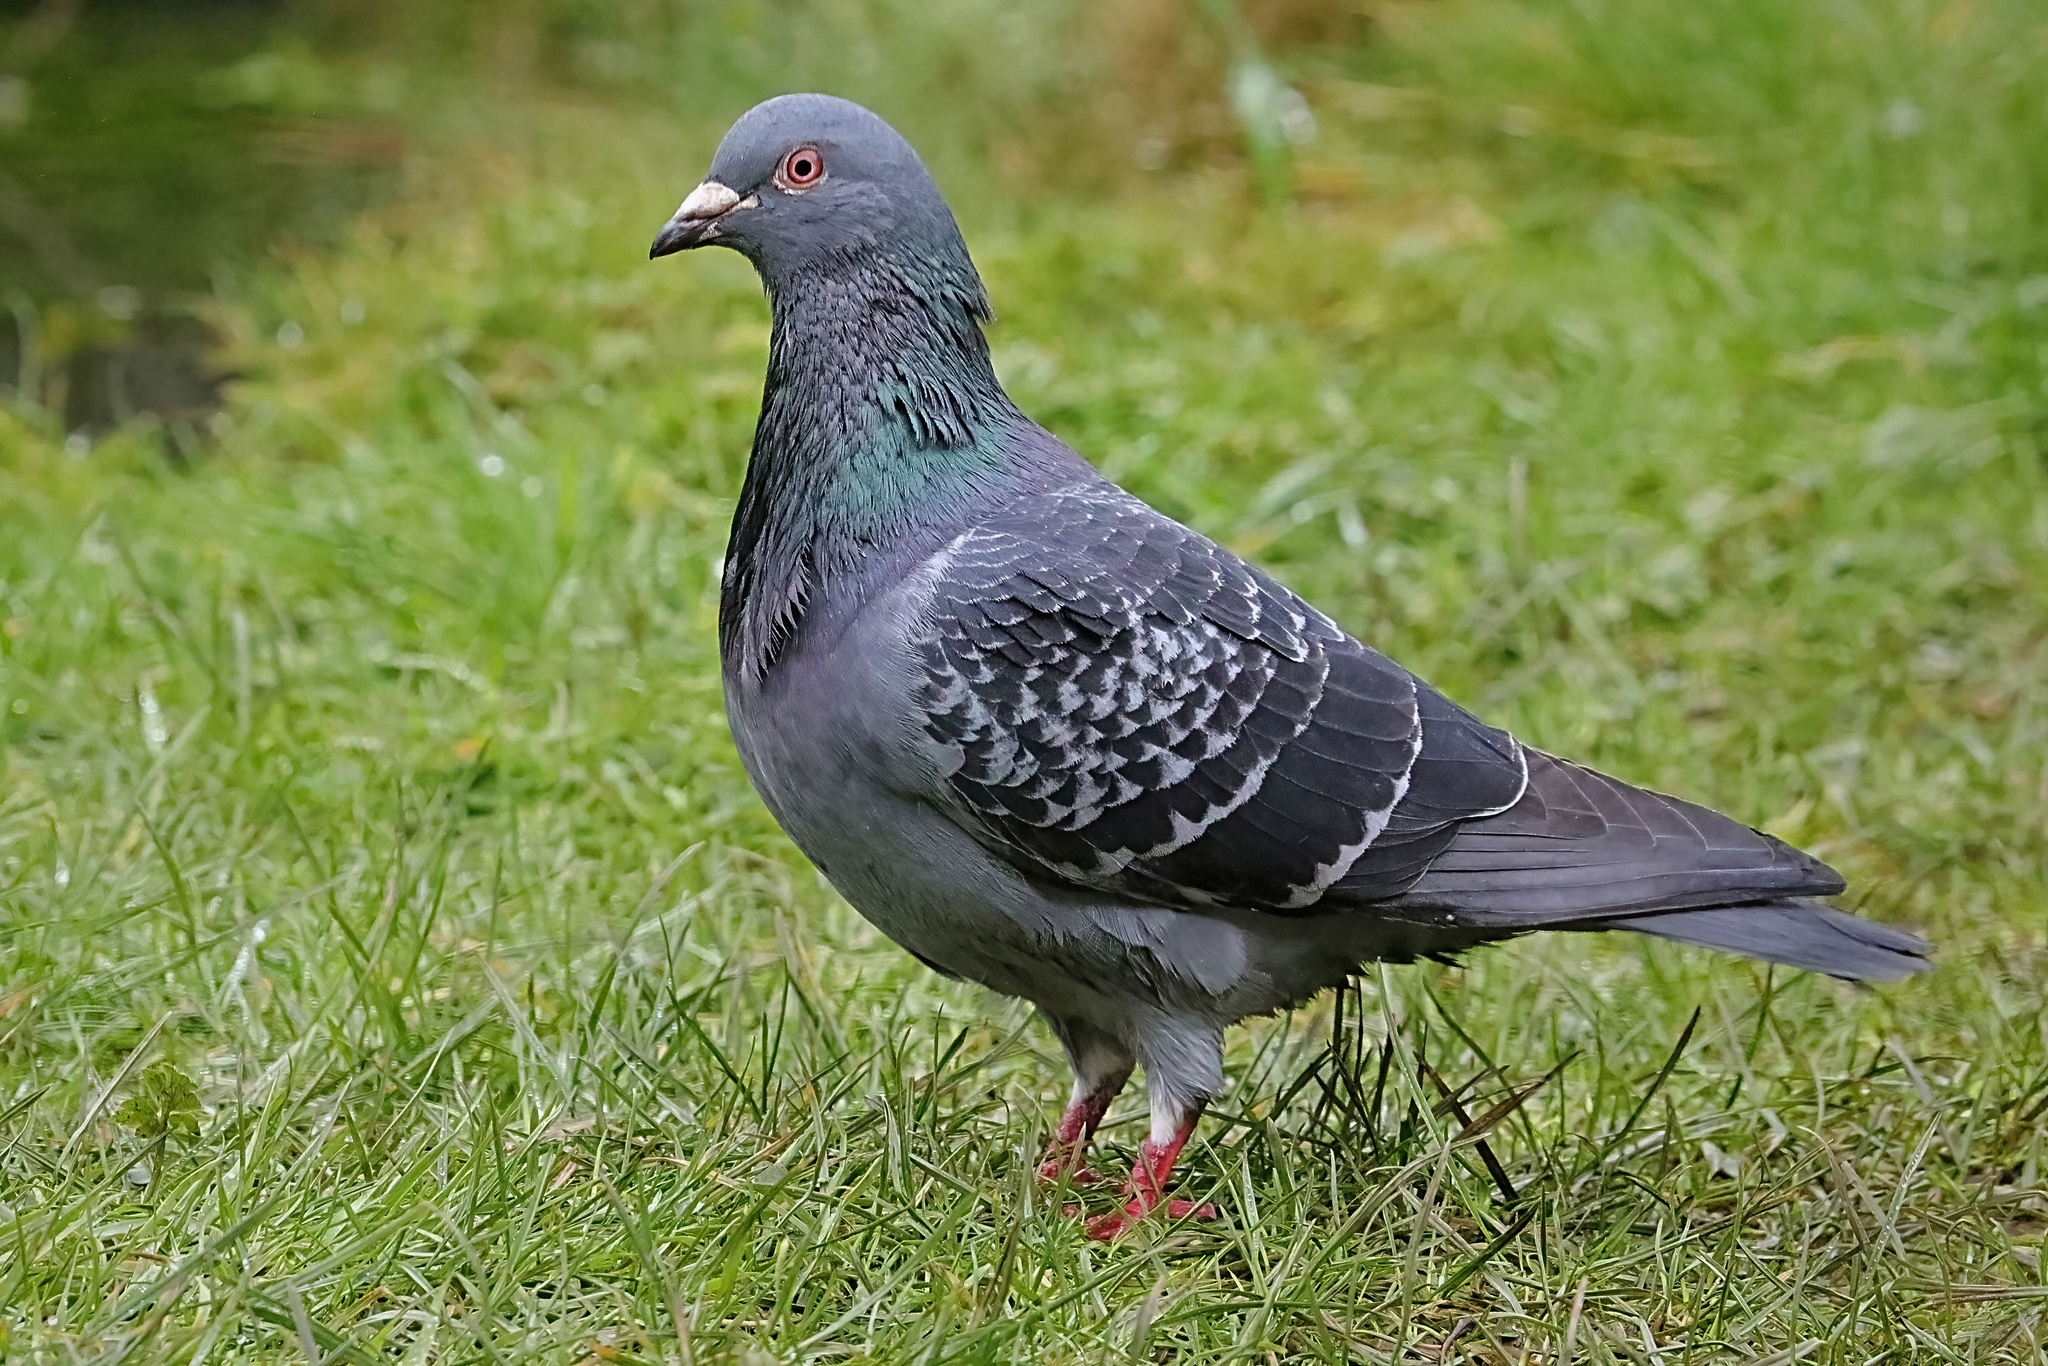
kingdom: Animalia
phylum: Chordata
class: Aves
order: Columbiformes
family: Columbidae
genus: Columba
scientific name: Columba livia
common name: Rock pigeon
